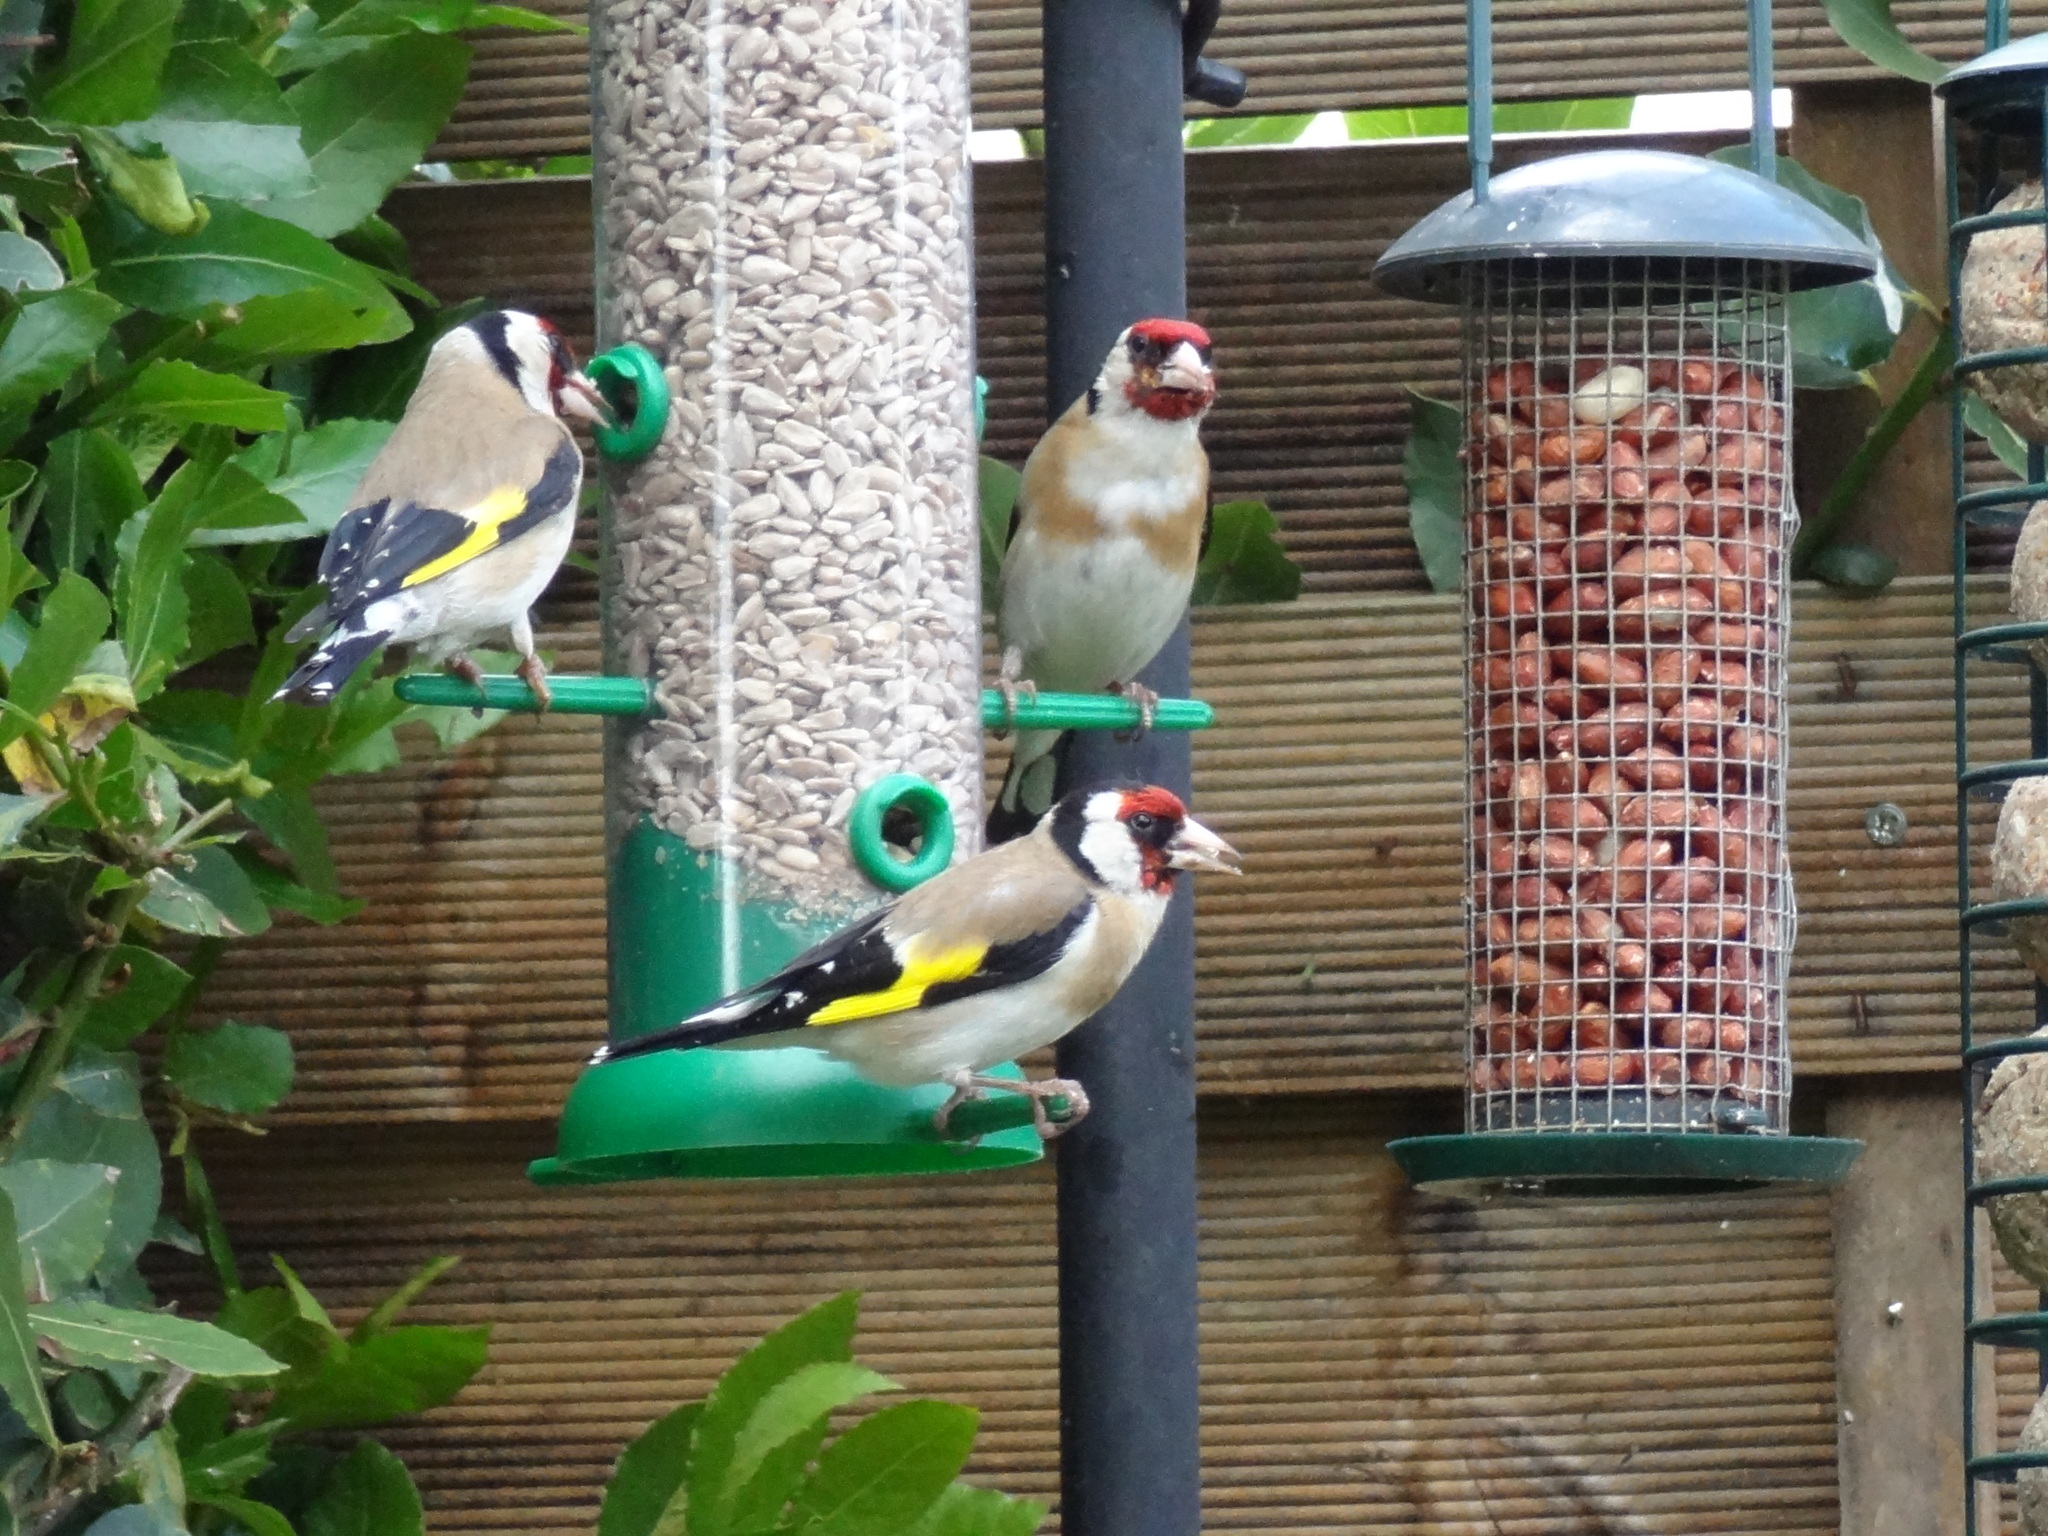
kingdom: Animalia
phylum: Chordata
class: Aves
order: Passeriformes
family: Fringillidae
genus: Carduelis
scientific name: Carduelis carduelis
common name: European goldfinch
